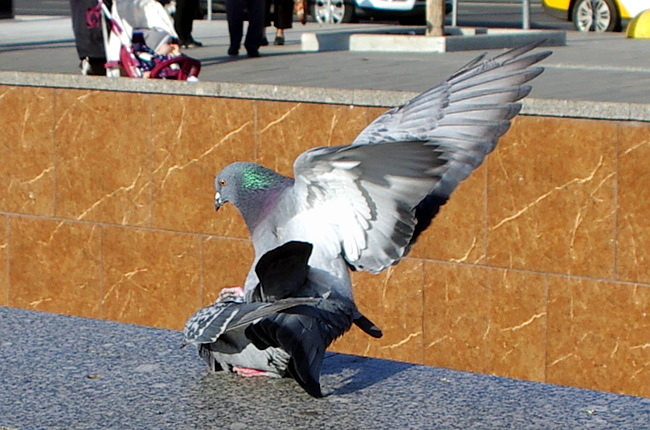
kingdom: Animalia
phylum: Chordata
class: Aves
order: Columbiformes
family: Columbidae
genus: Columba
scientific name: Columba livia
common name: Rock pigeon
